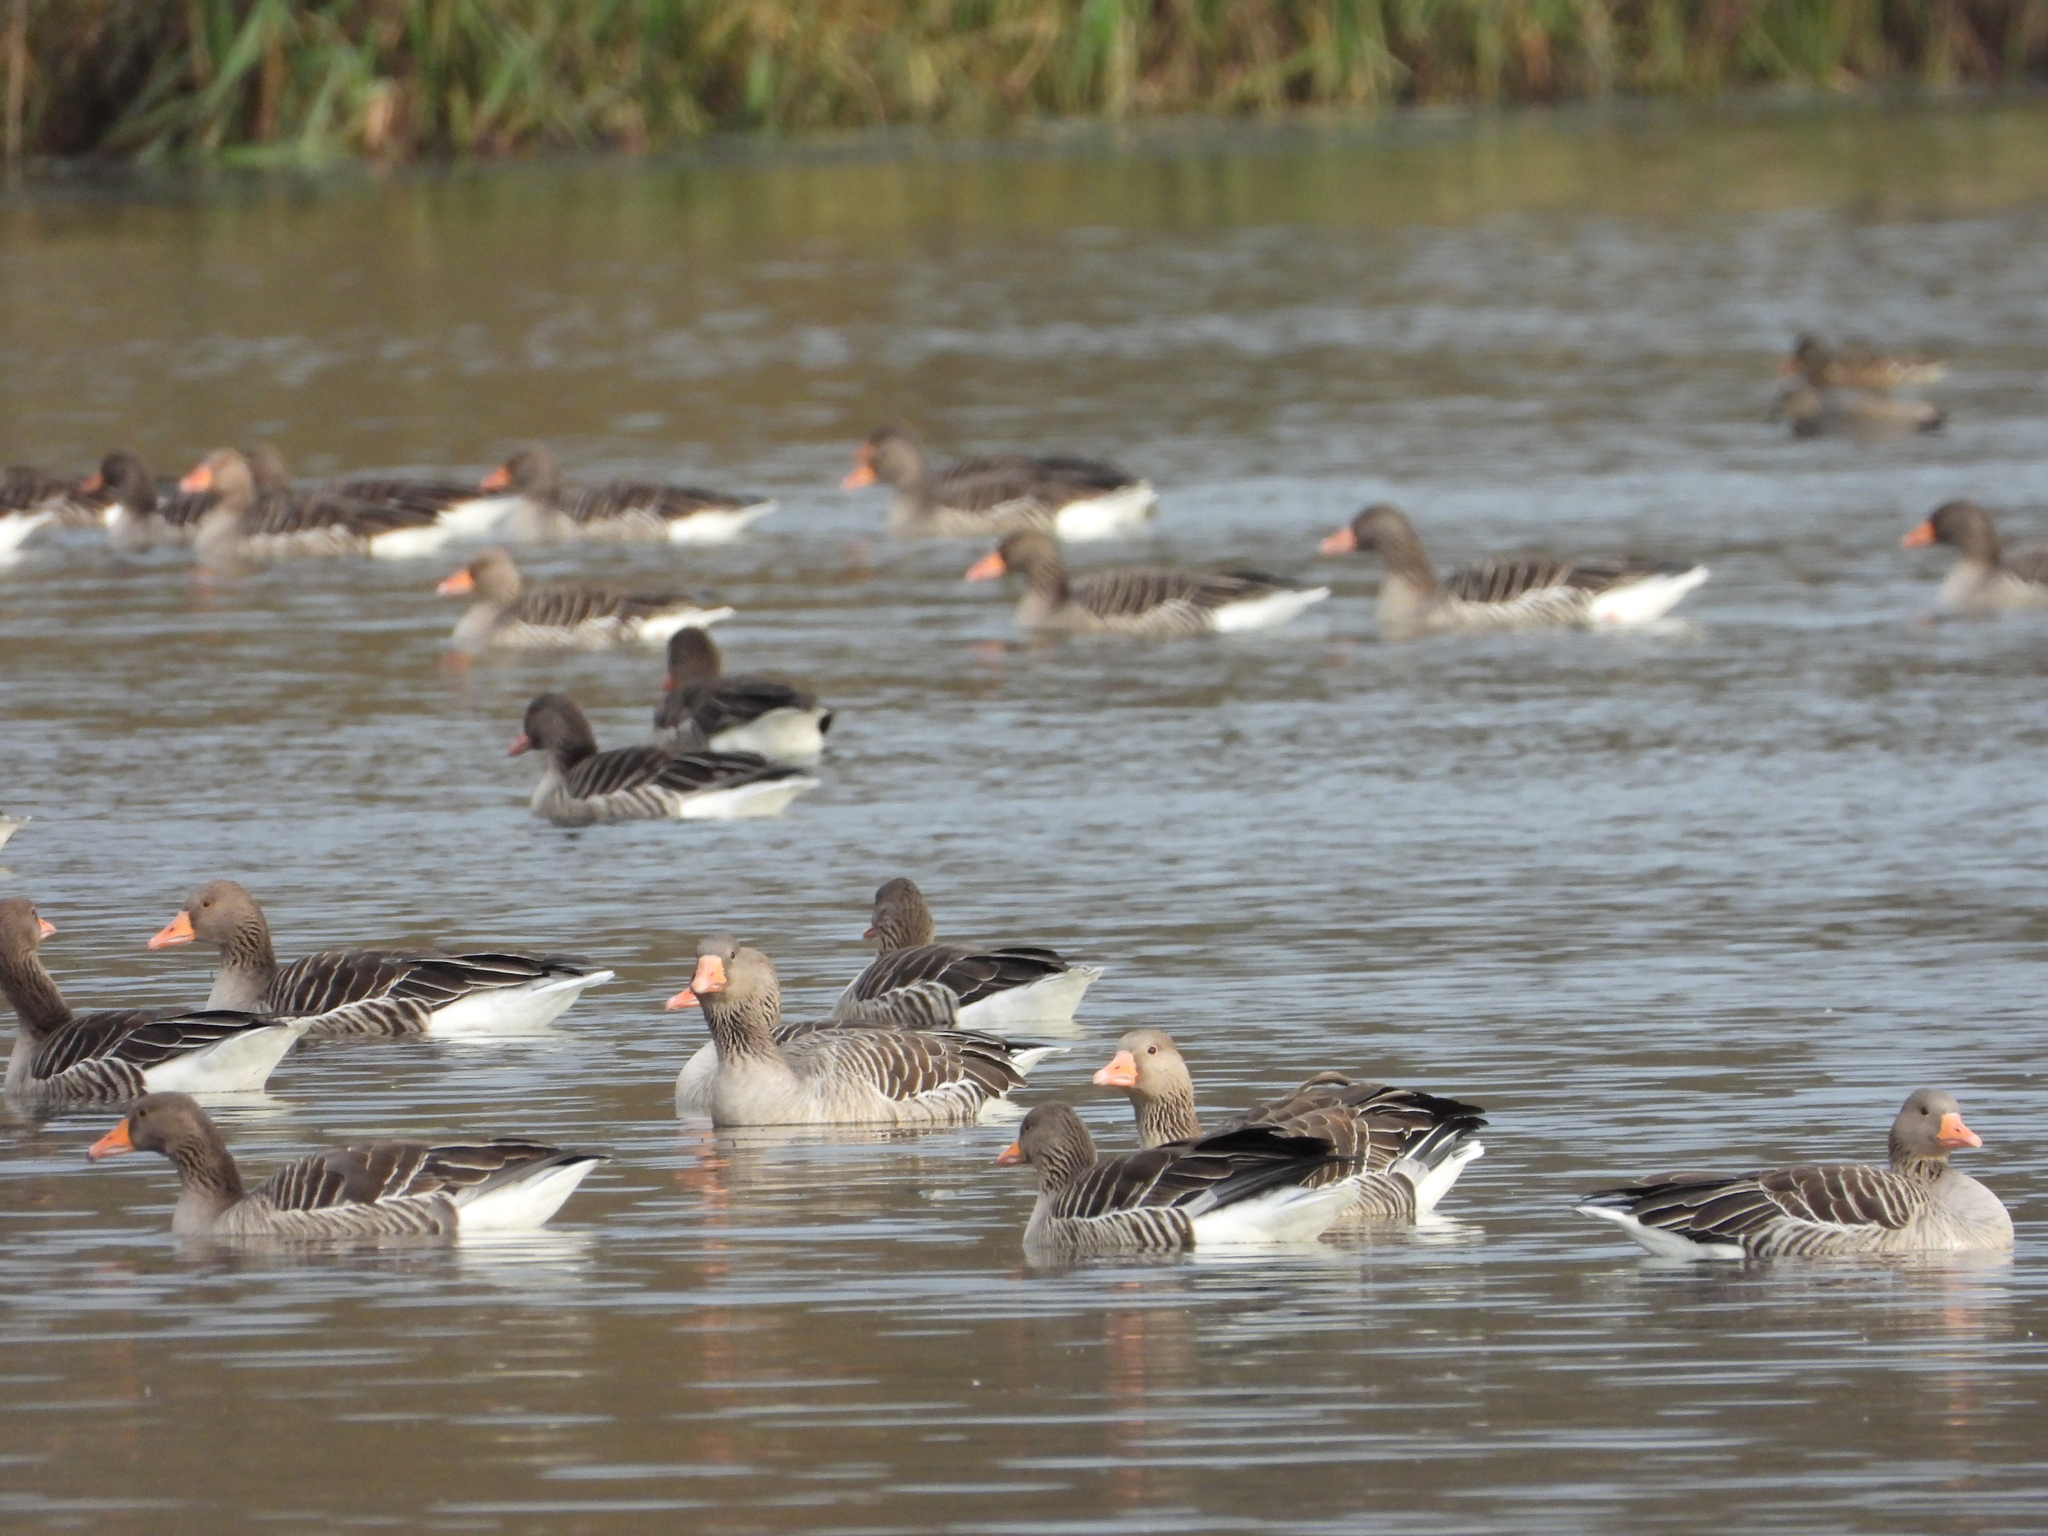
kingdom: Animalia
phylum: Chordata
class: Aves
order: Anseriformes
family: Anatidae
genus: Anser
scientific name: Anser anser
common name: Greylag goose
